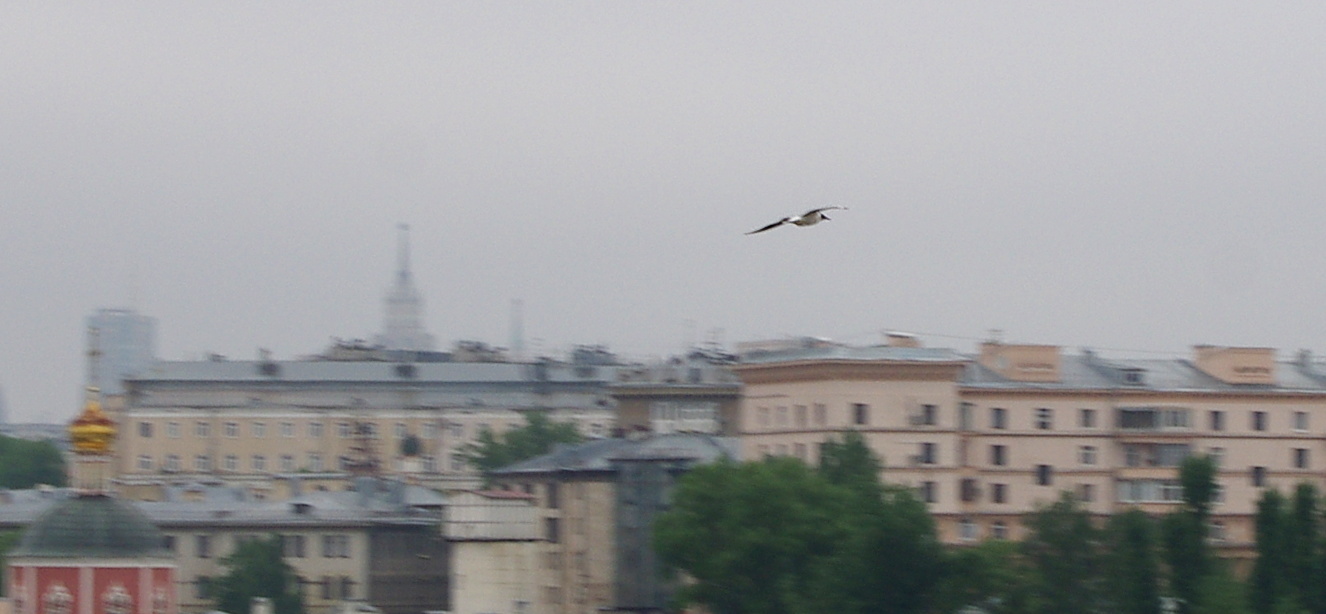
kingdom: Animalia
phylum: Chordata
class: Aves
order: Charadriiformes
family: Laridae
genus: Chroicocephalus
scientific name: Chroicocephalus ridibundus
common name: Black-headed gull
